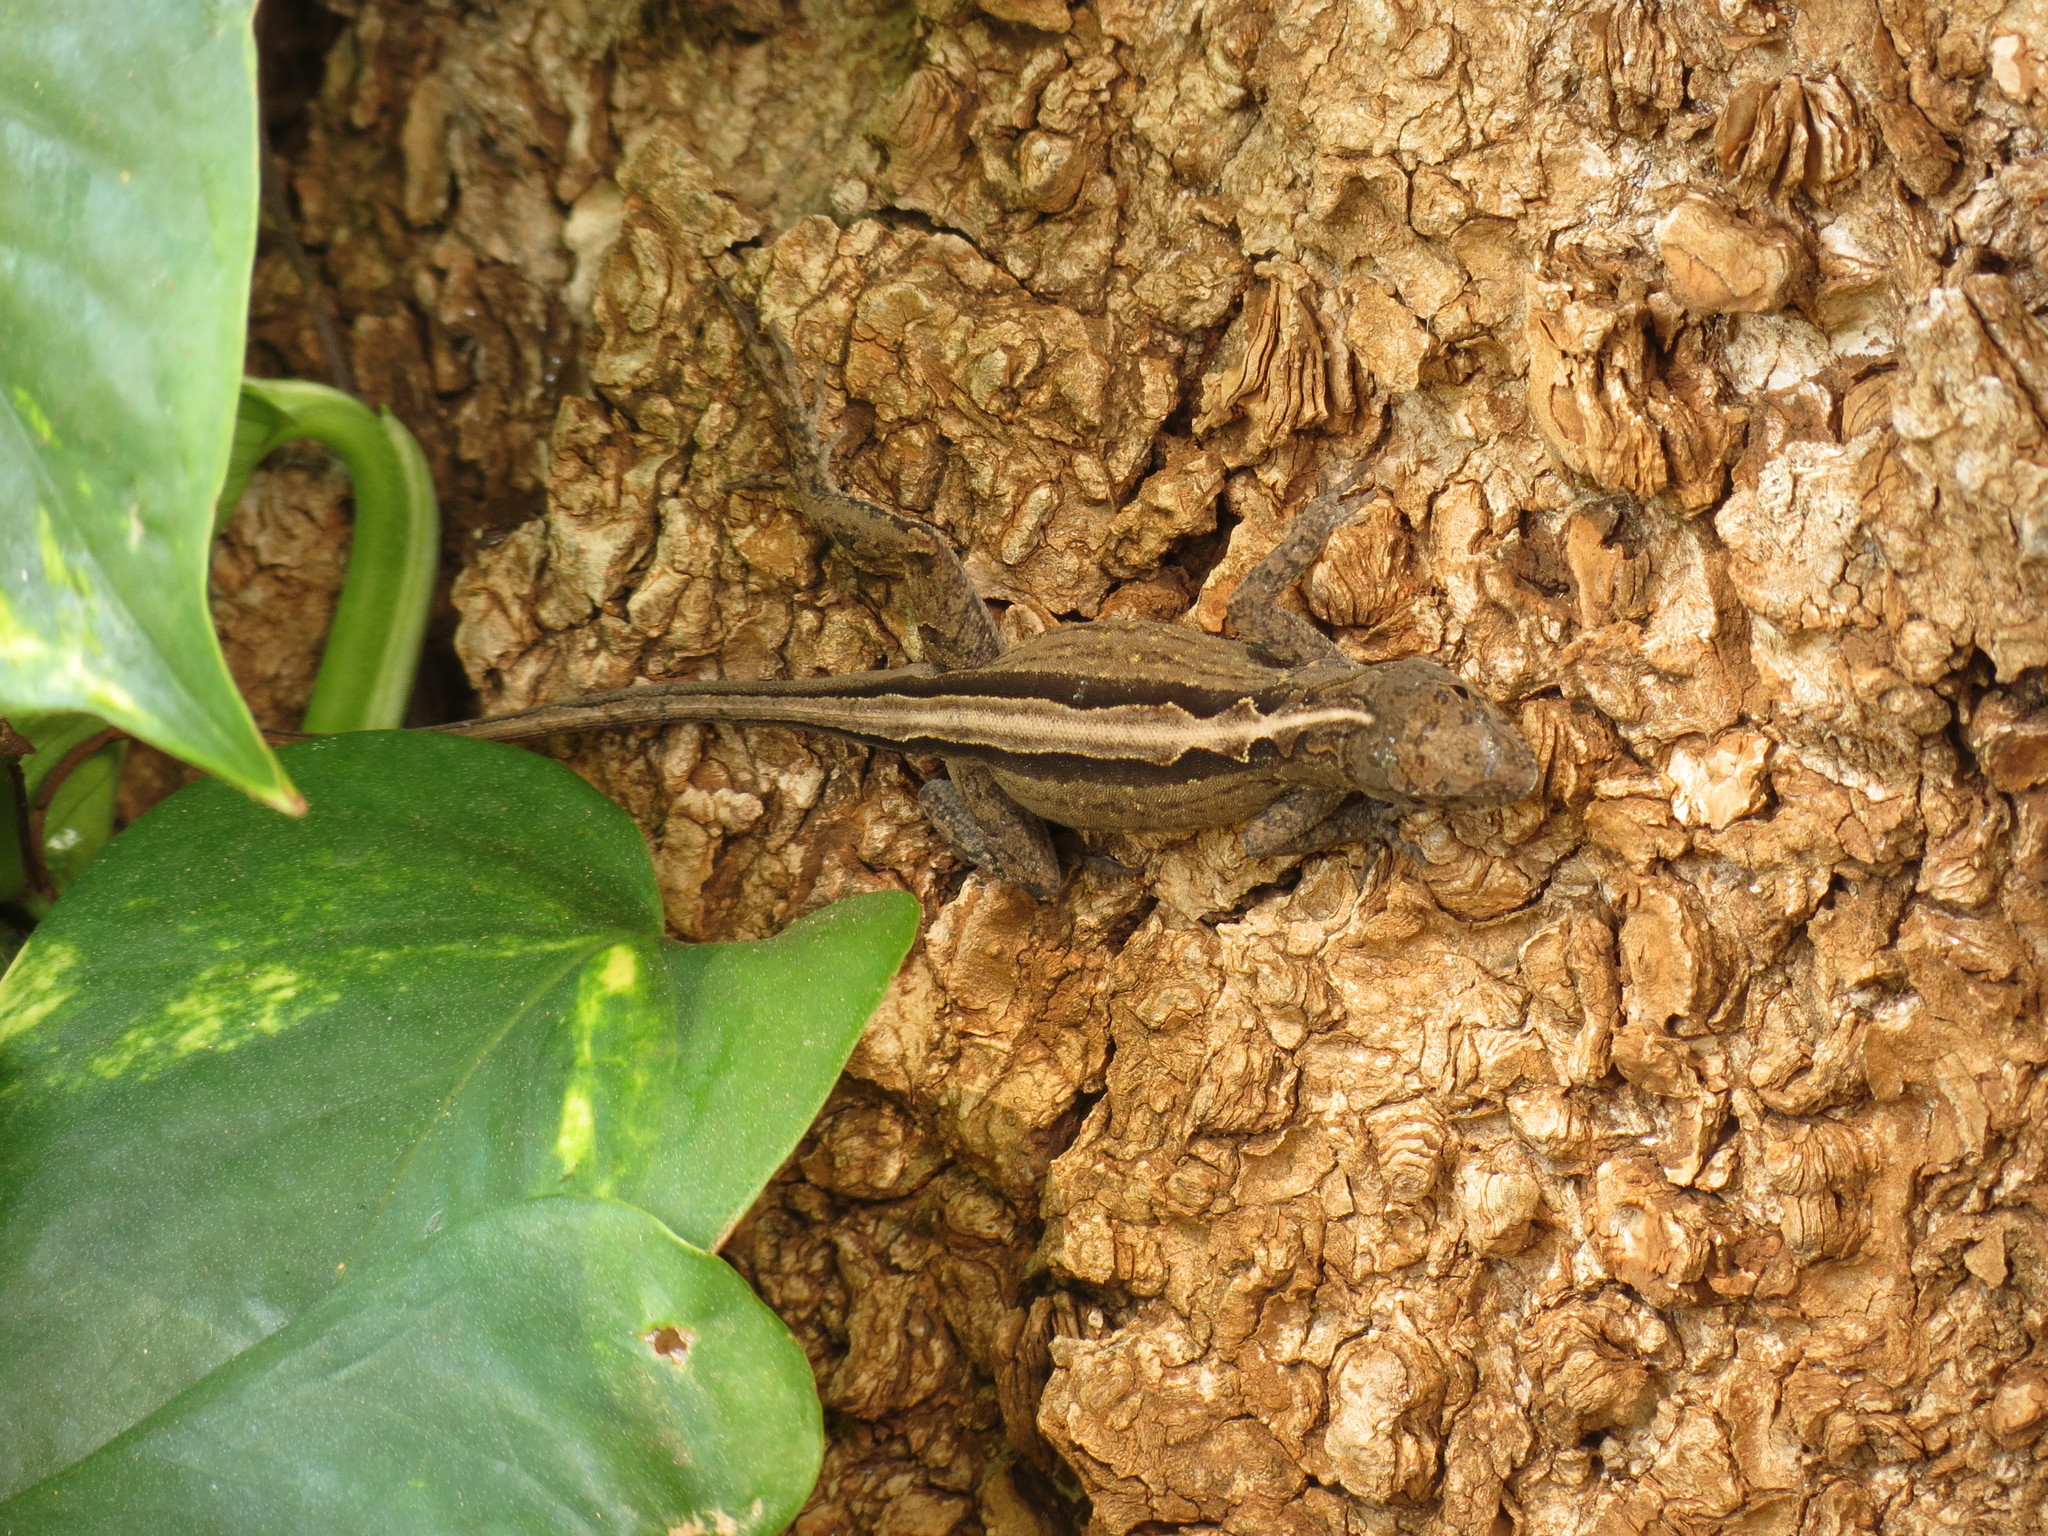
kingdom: Animalia
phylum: Chordata
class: Squamata
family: Dactyloidae
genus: Anolis
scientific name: Anolis sagrei
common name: Brown anole
